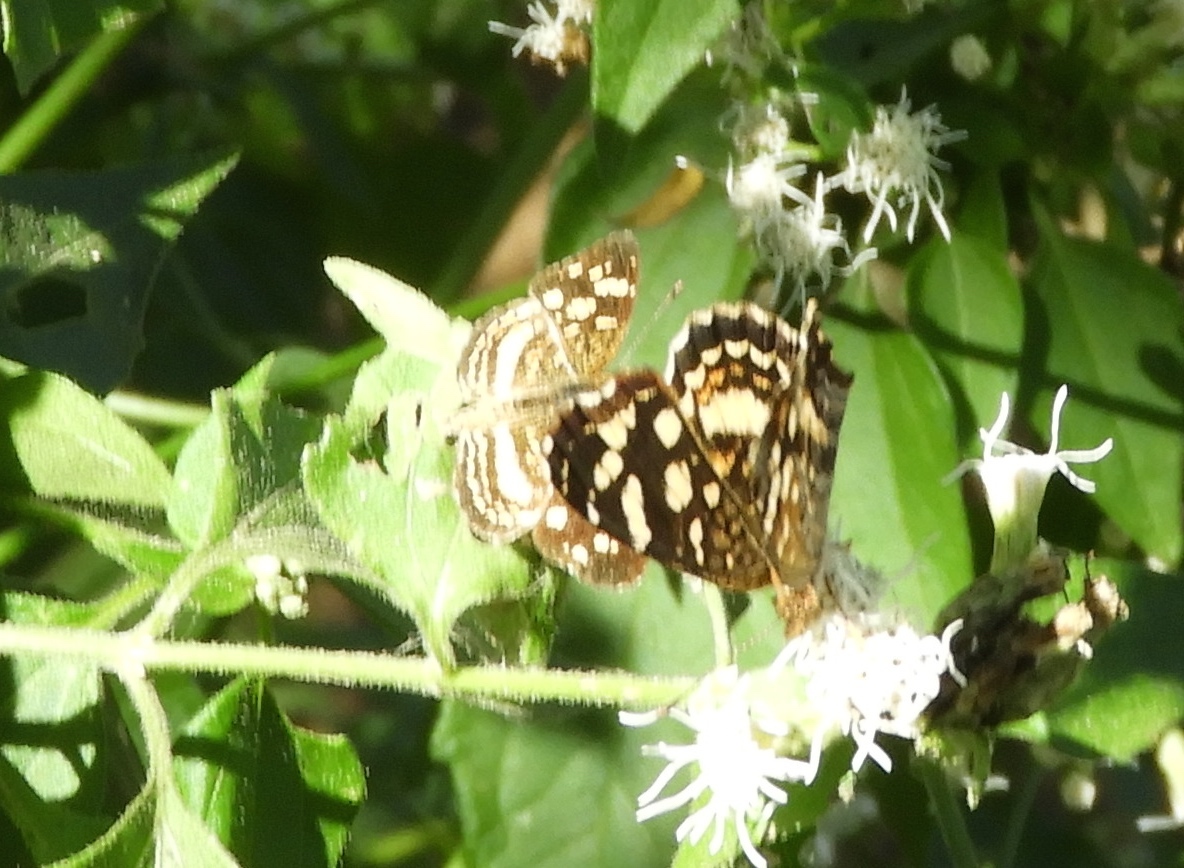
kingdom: Animalia
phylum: Arthropoda
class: Insecta
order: Lepidoptera
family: Nymphalidae
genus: Anthanassa
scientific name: Anthanassa tulcis
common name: Pale-banded crescent
